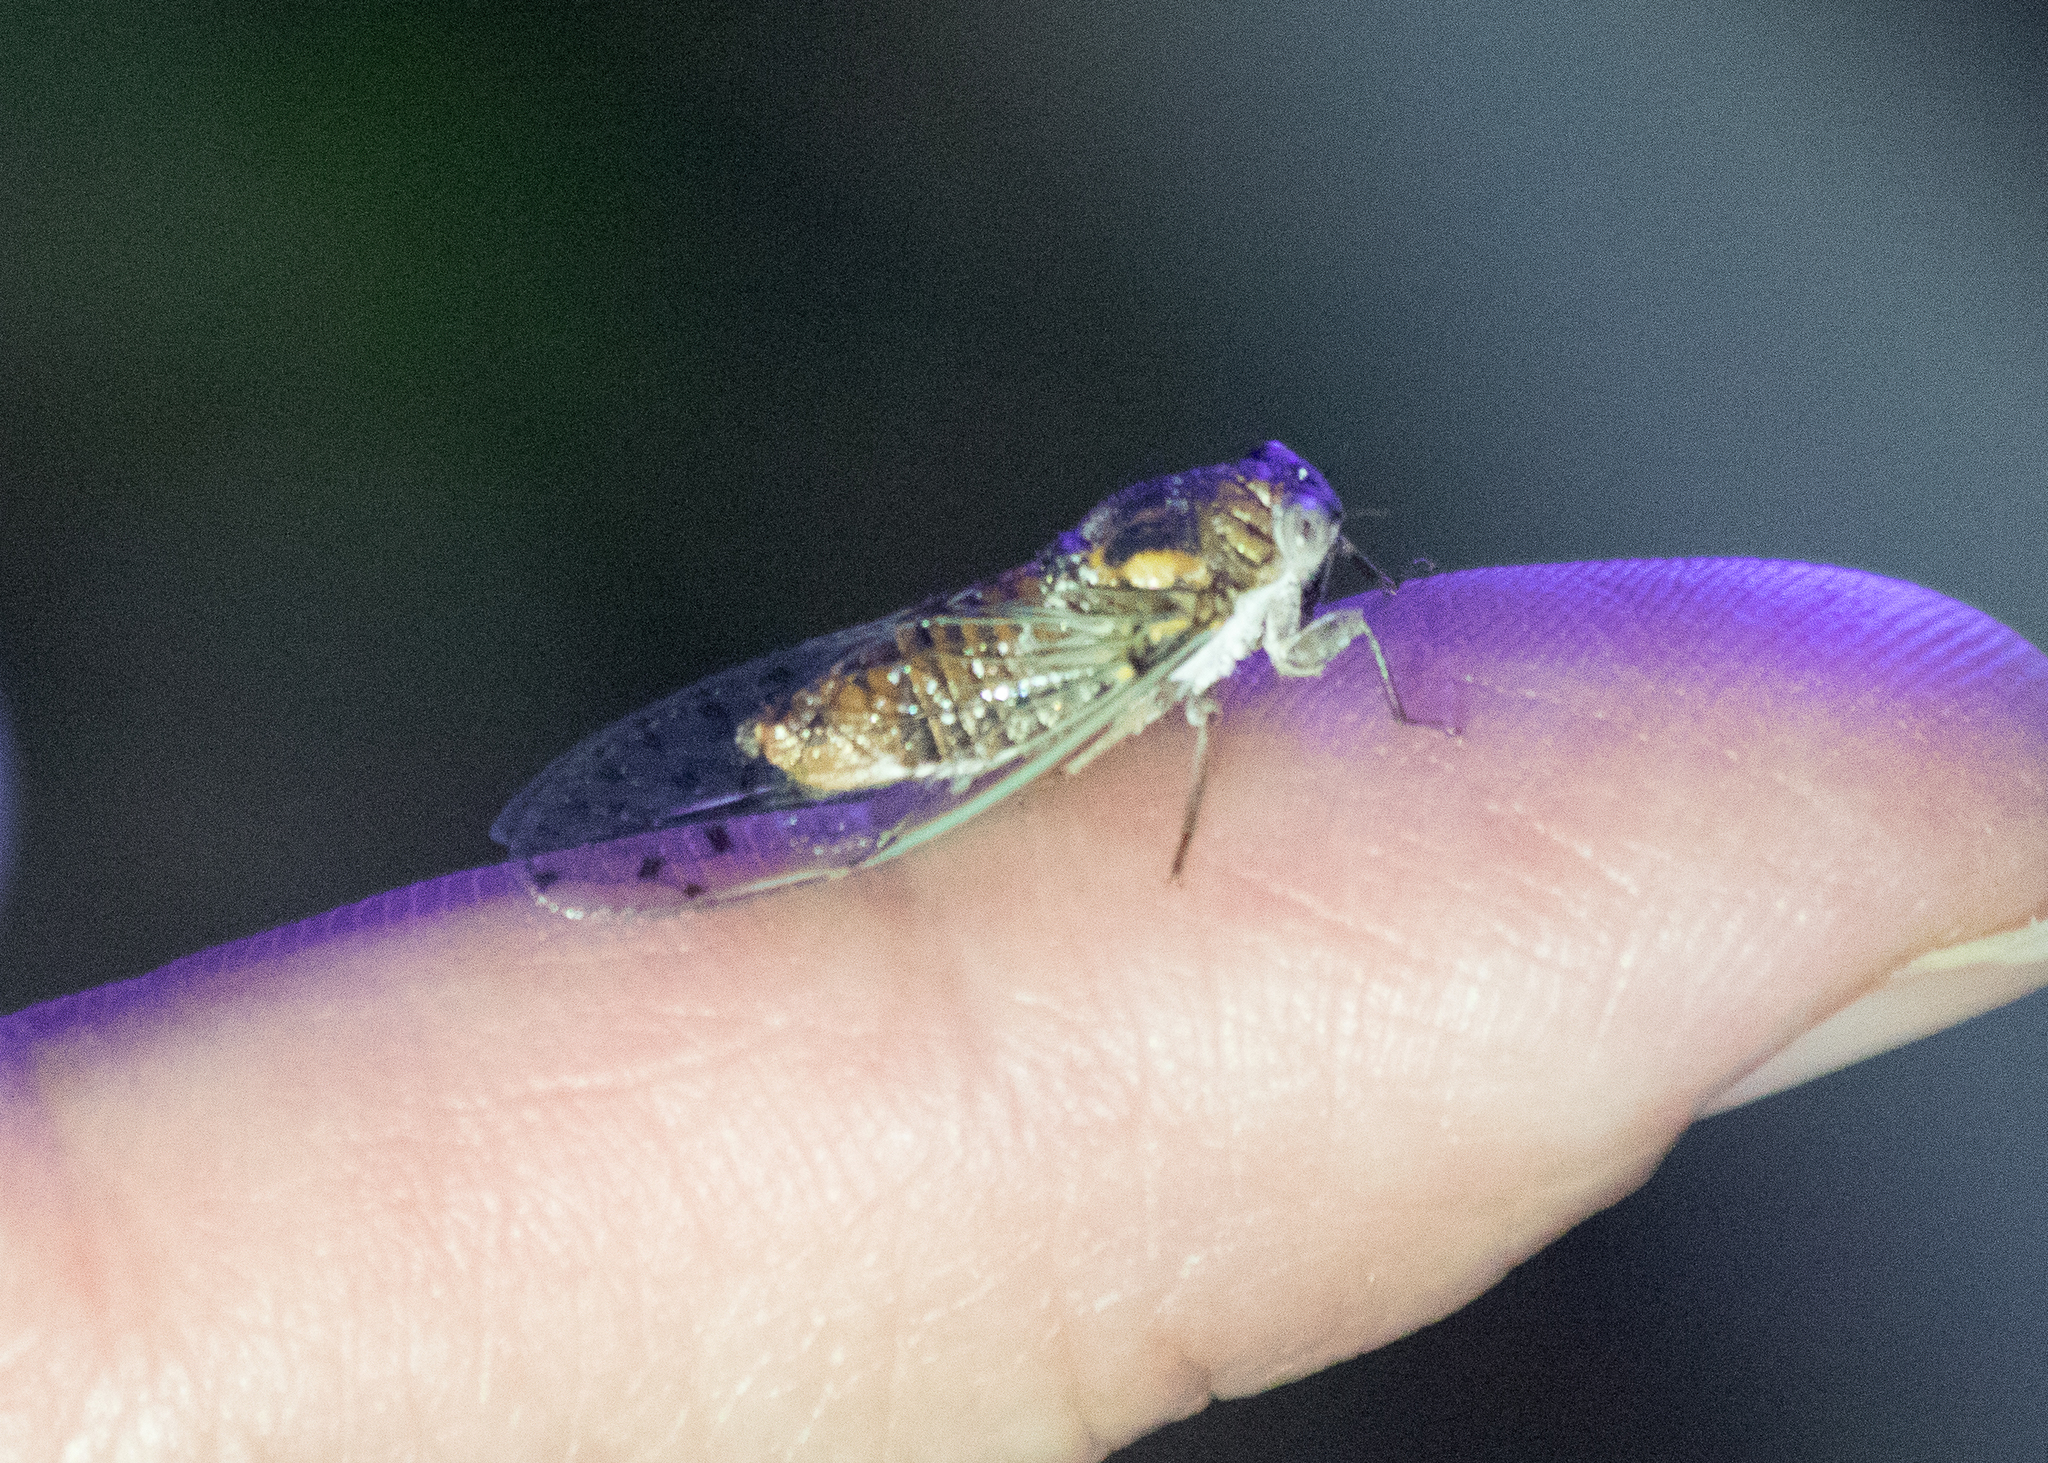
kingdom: Animalia
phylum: Arthropoda
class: Insecta
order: Hemiptera
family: Cicadidae
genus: Pacarina
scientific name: Pacarina puella
